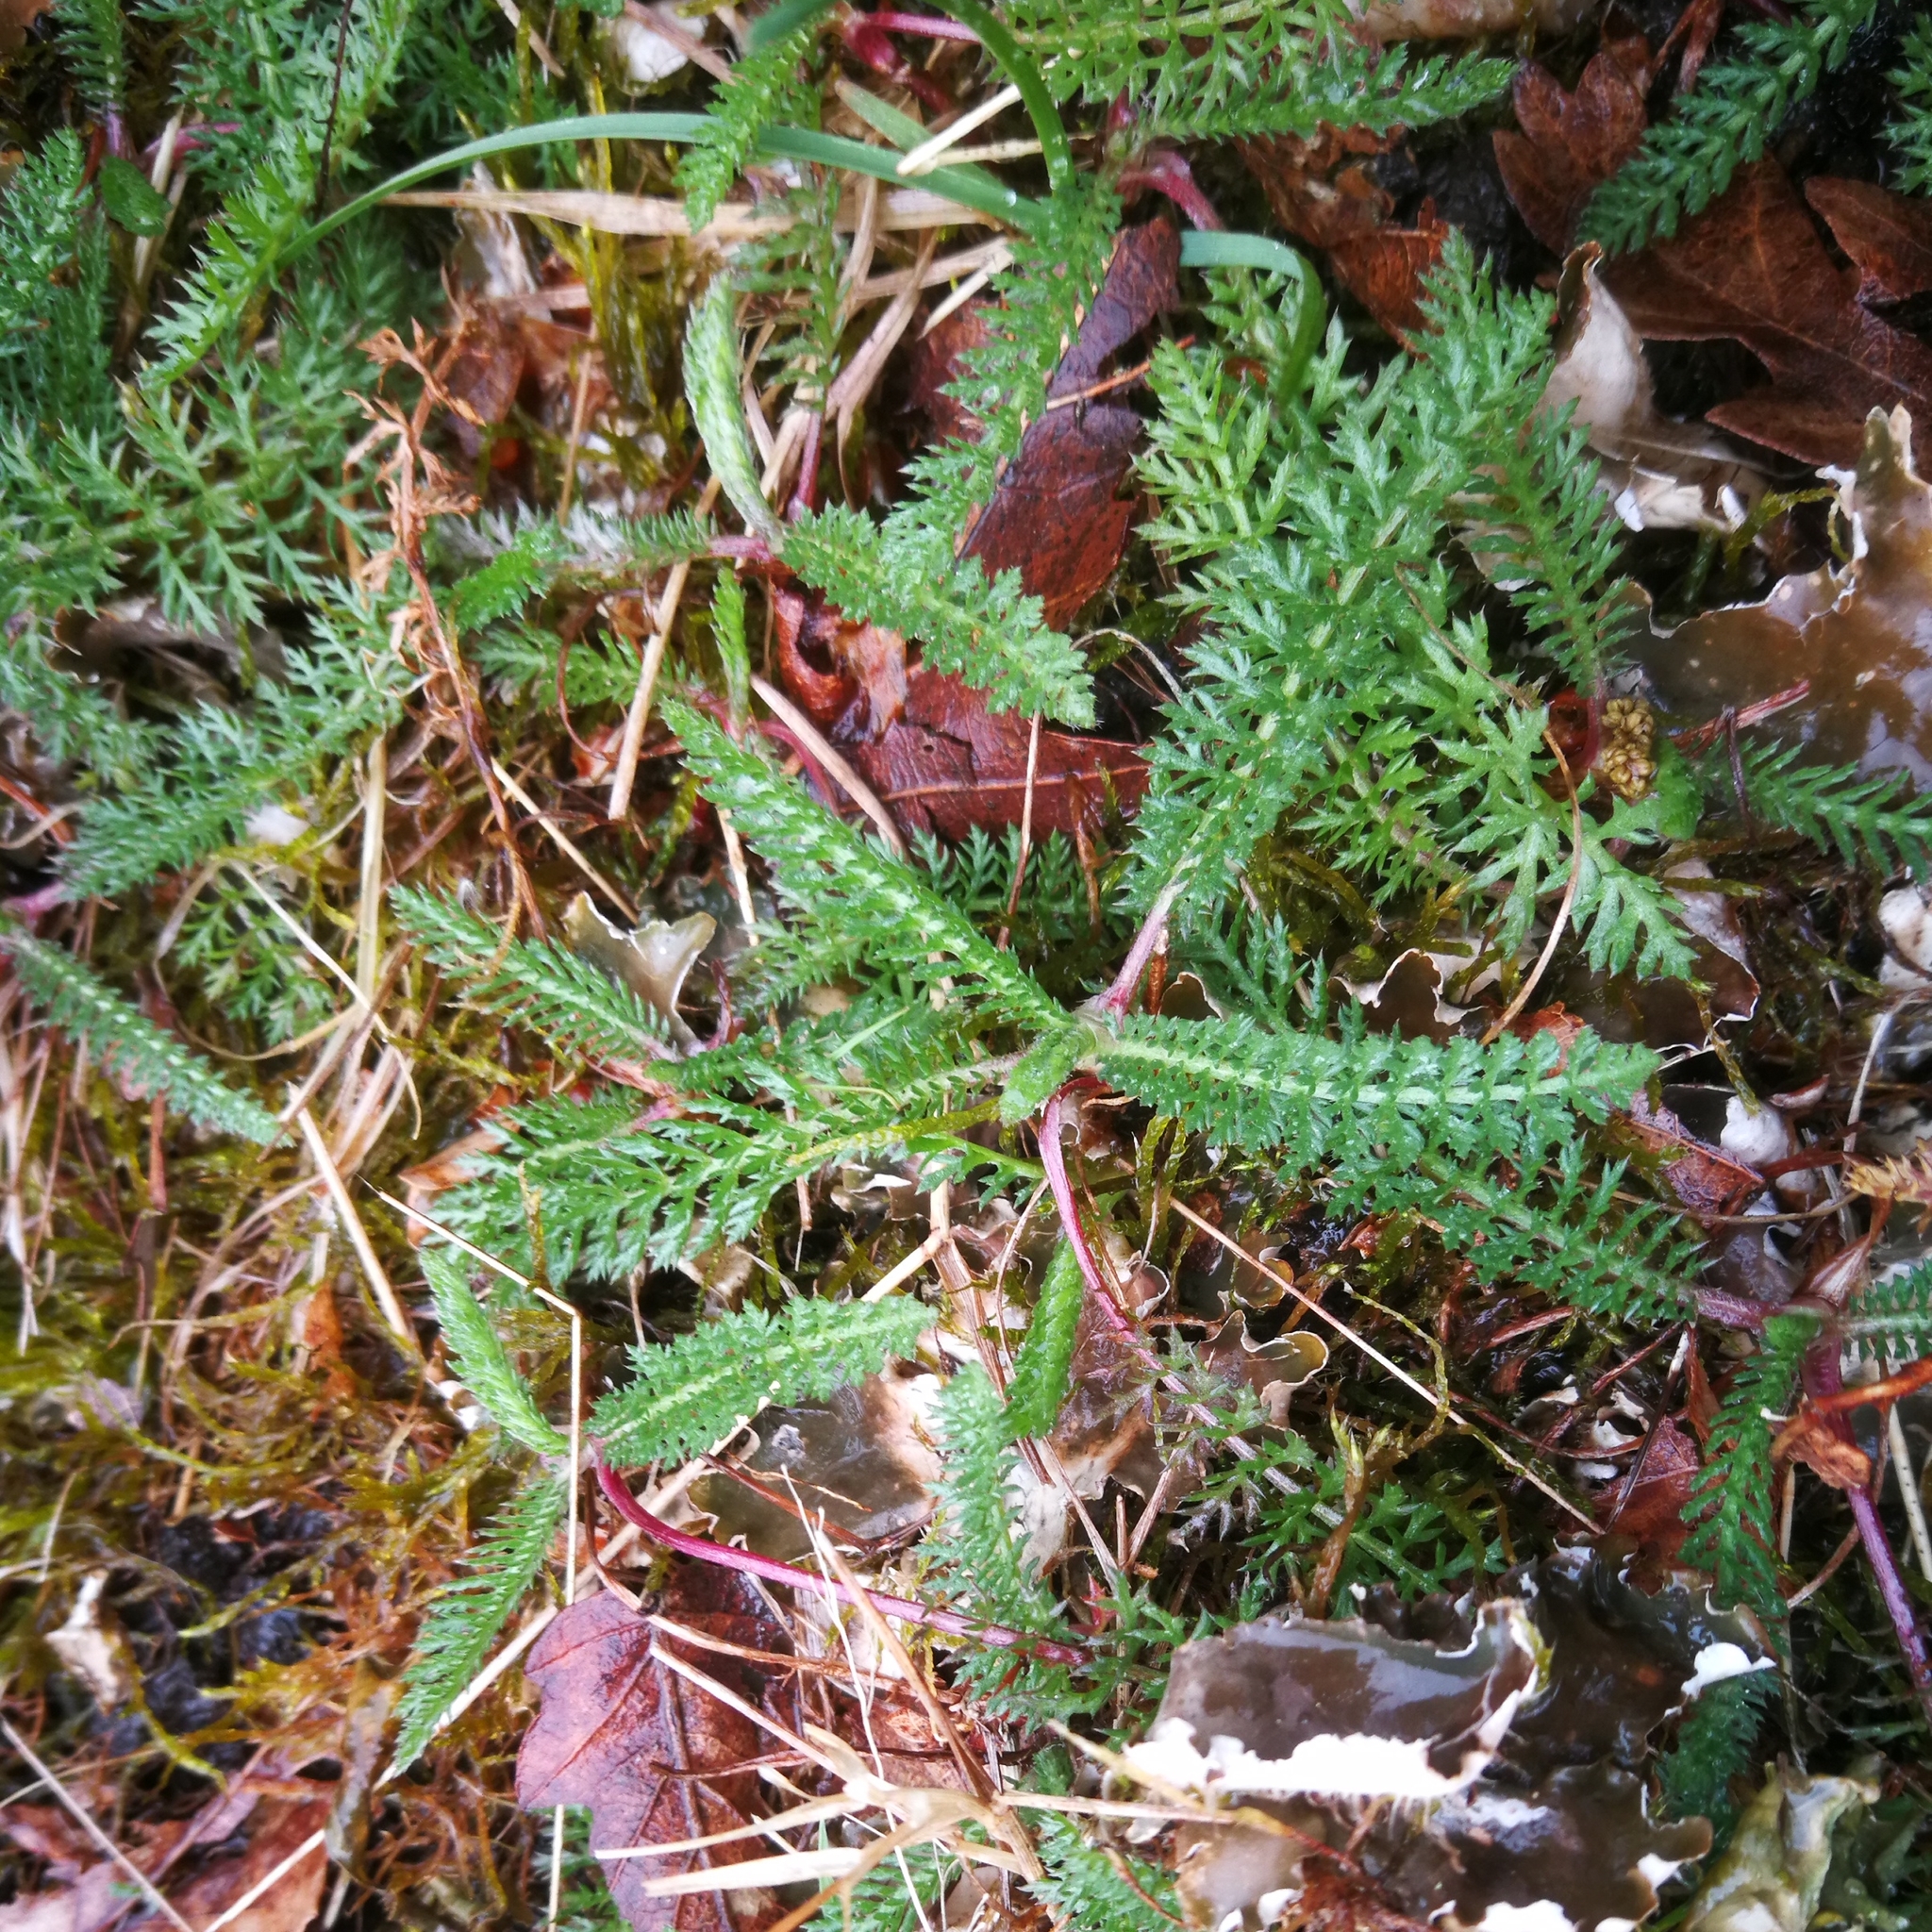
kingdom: Plantae
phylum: Tracheophyta
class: Magnoliopsida
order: Asterales
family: Asteraceae
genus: Achillea
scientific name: Achillea millefolium
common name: Yarrow
